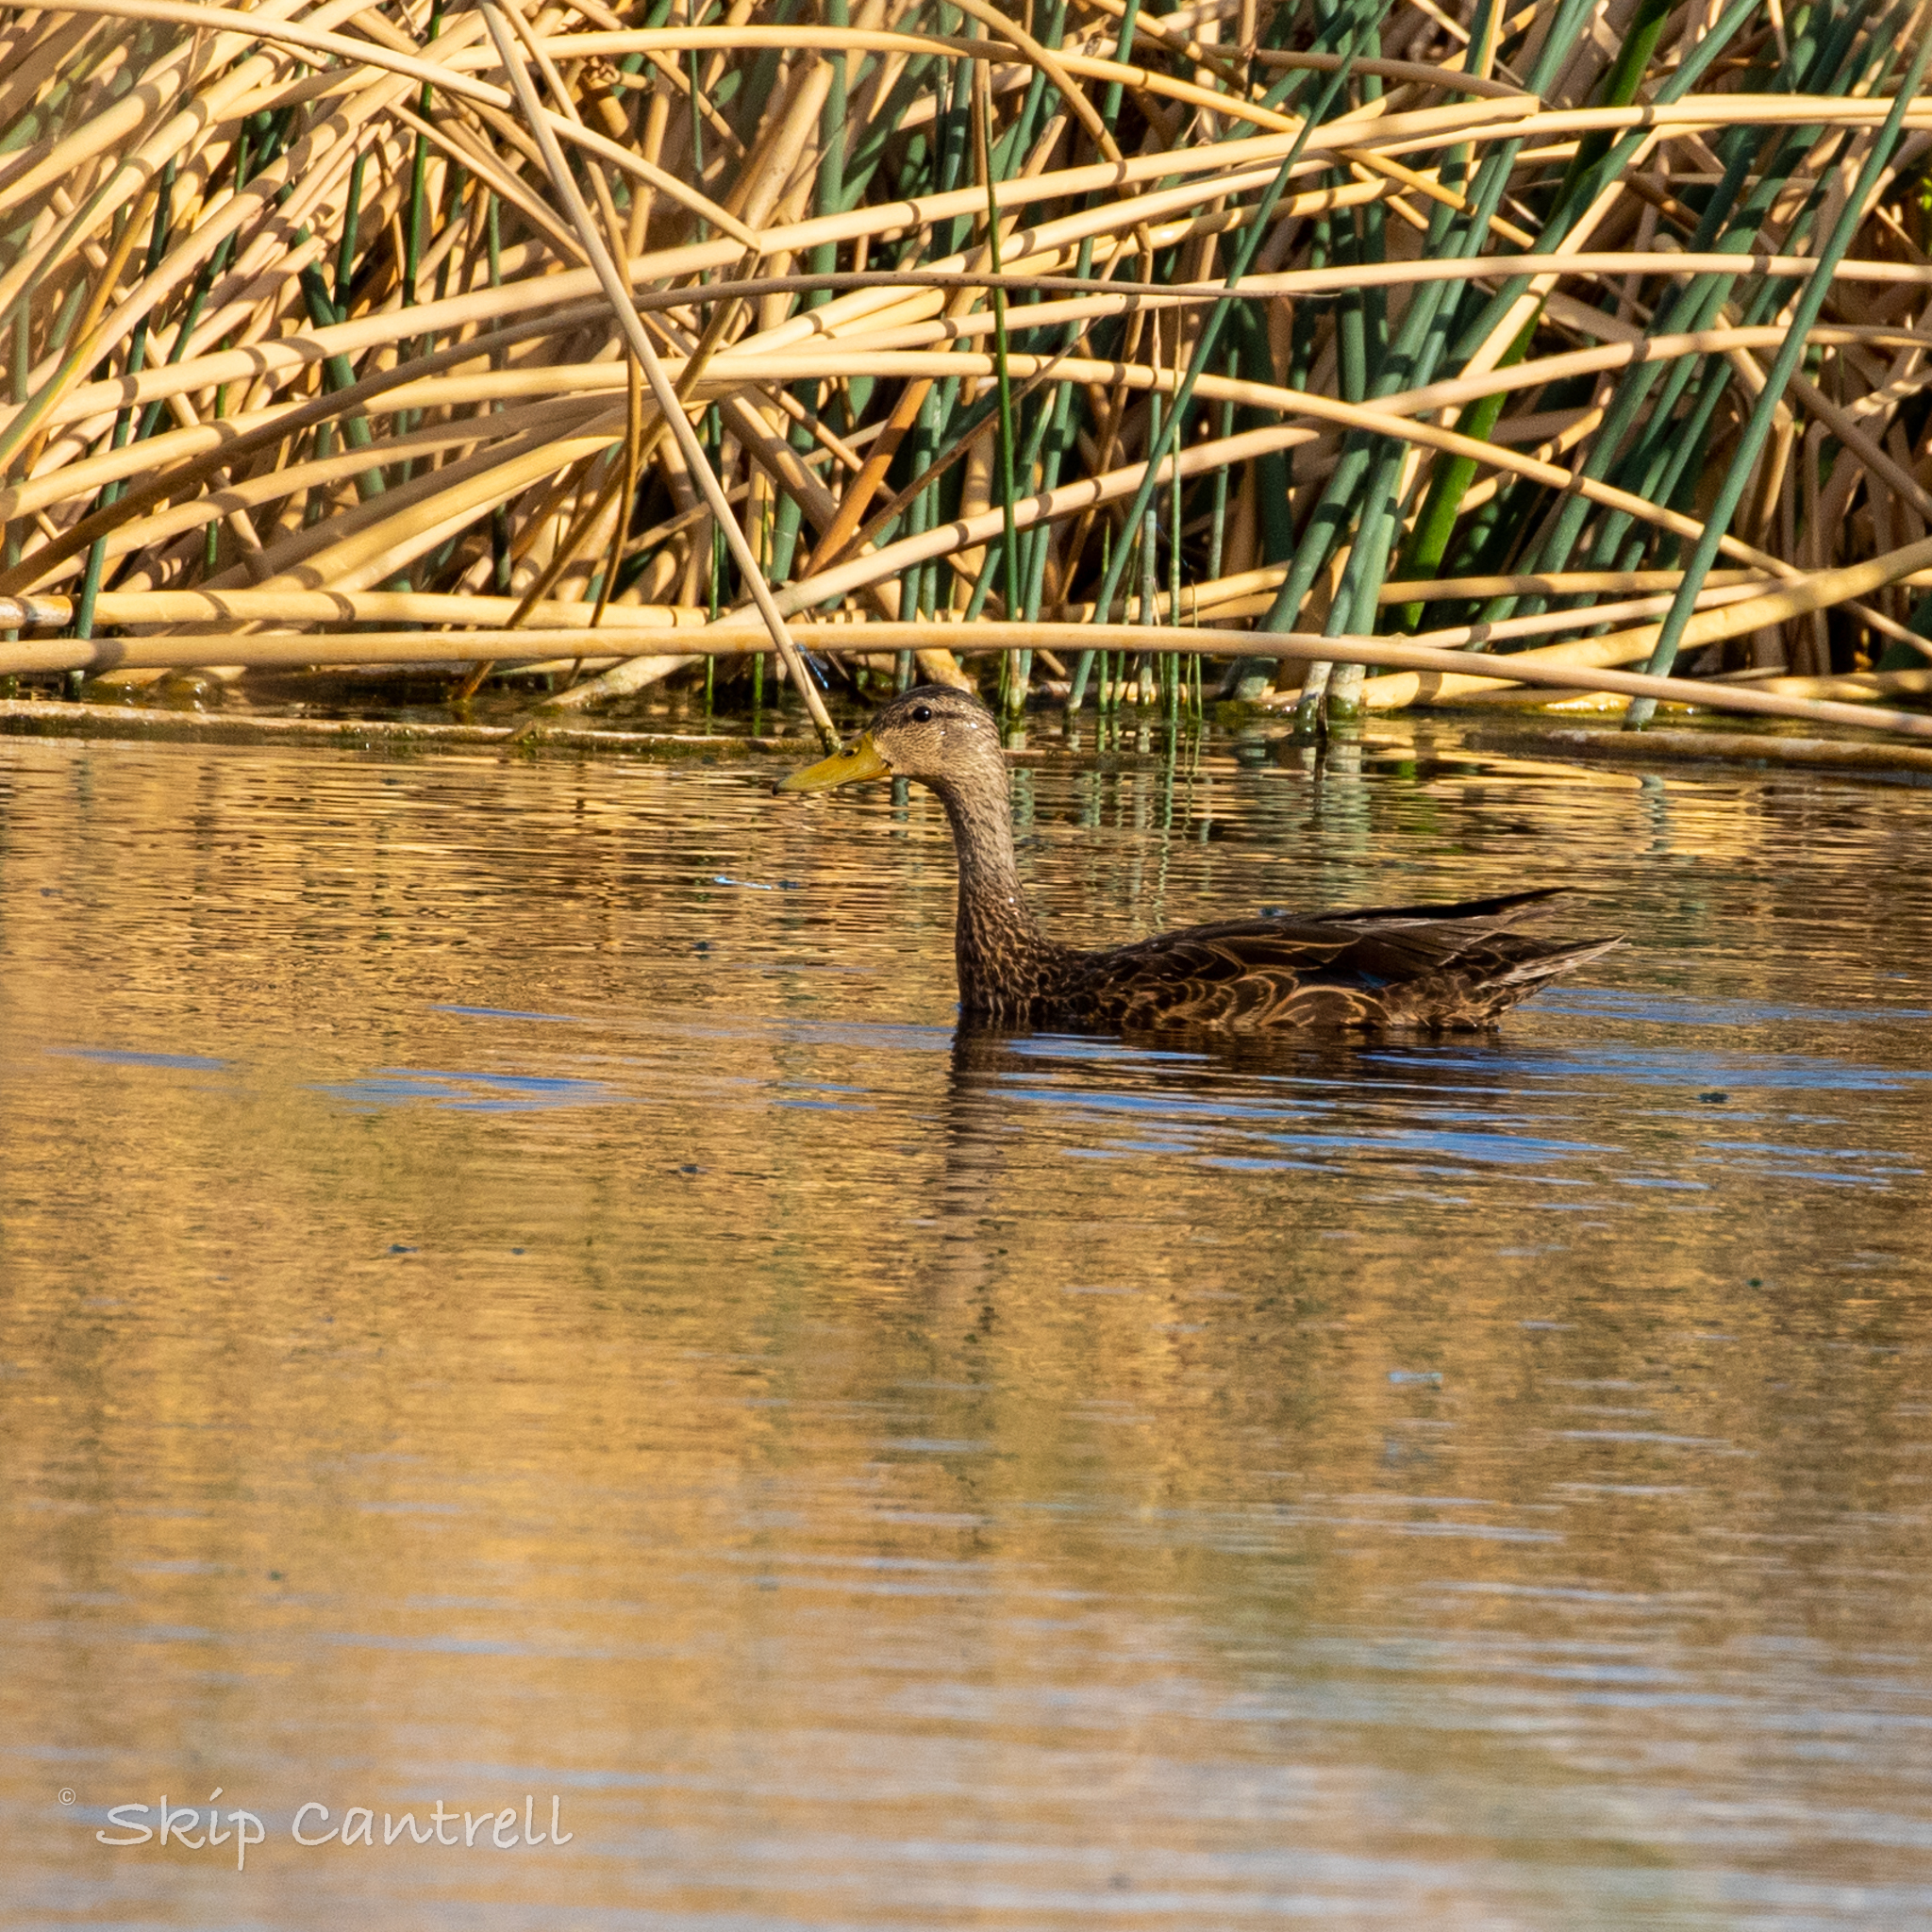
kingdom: Animalia
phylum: Chordata
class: Aves
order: Anseriformes
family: Anatidae
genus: Anas
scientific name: Anas diazi
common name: Mexican duck
